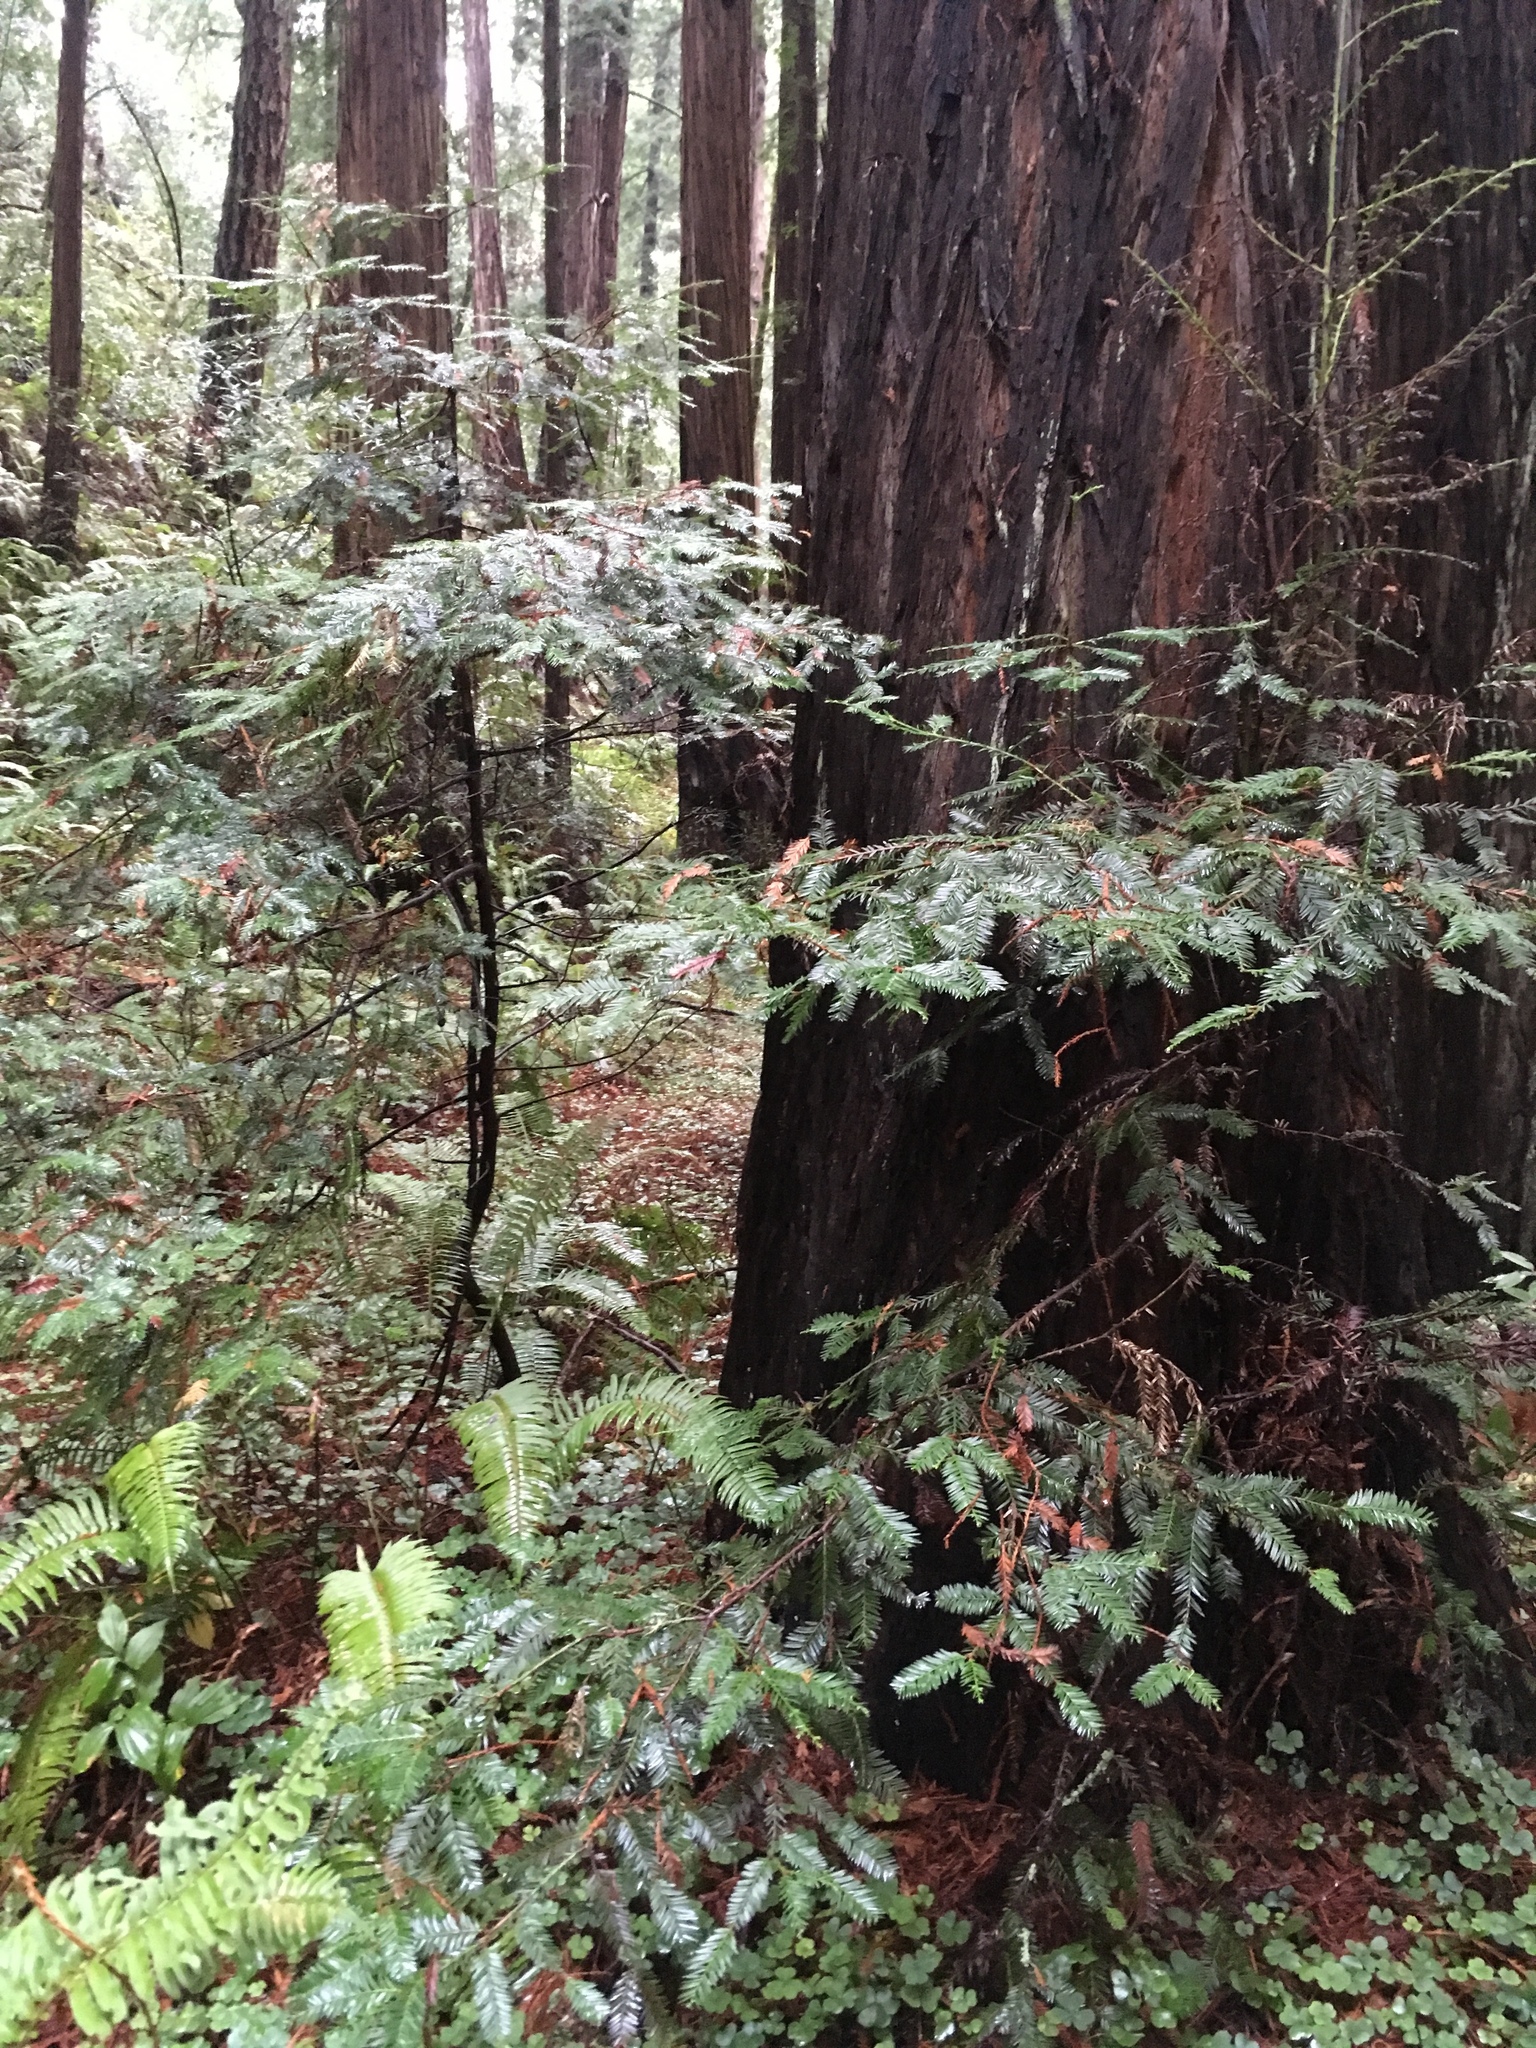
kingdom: Plantae
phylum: Tracheophyta
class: Pinopsida
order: Pinales
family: Cupressaceae
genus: Sequoia
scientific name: Sequoia sempervirens
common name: Coast redwood
